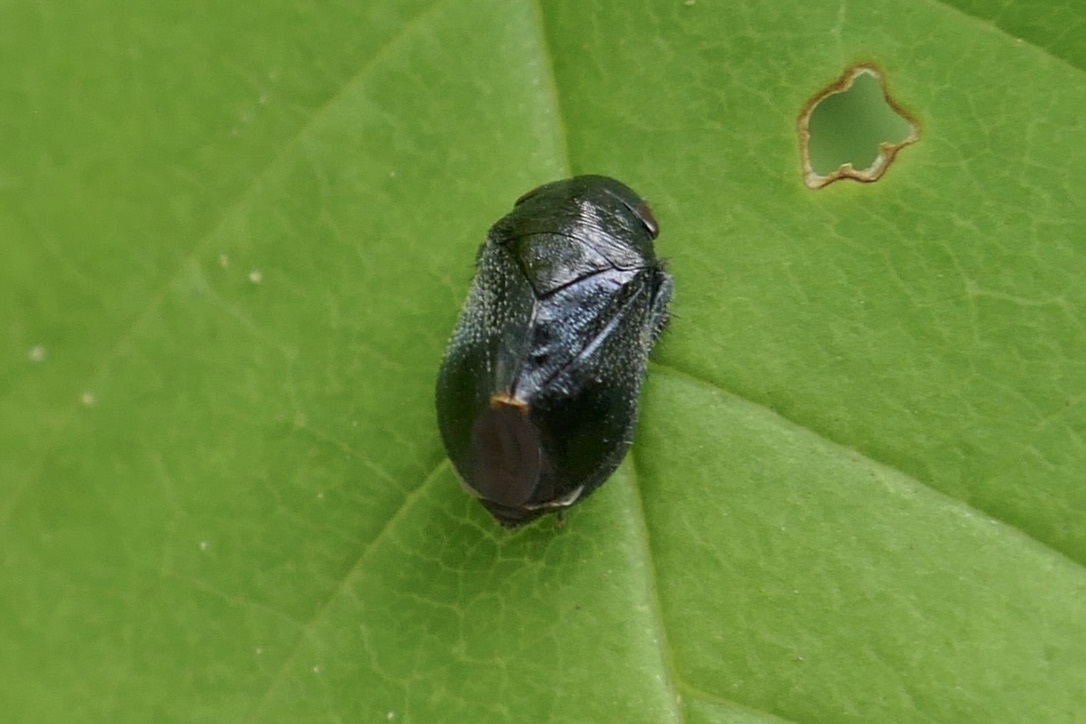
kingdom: Animalia
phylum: Arthropoda
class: Insecta
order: Hemiptera
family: Cicadellidae
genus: Penthimia
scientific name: Penthimia nigra
